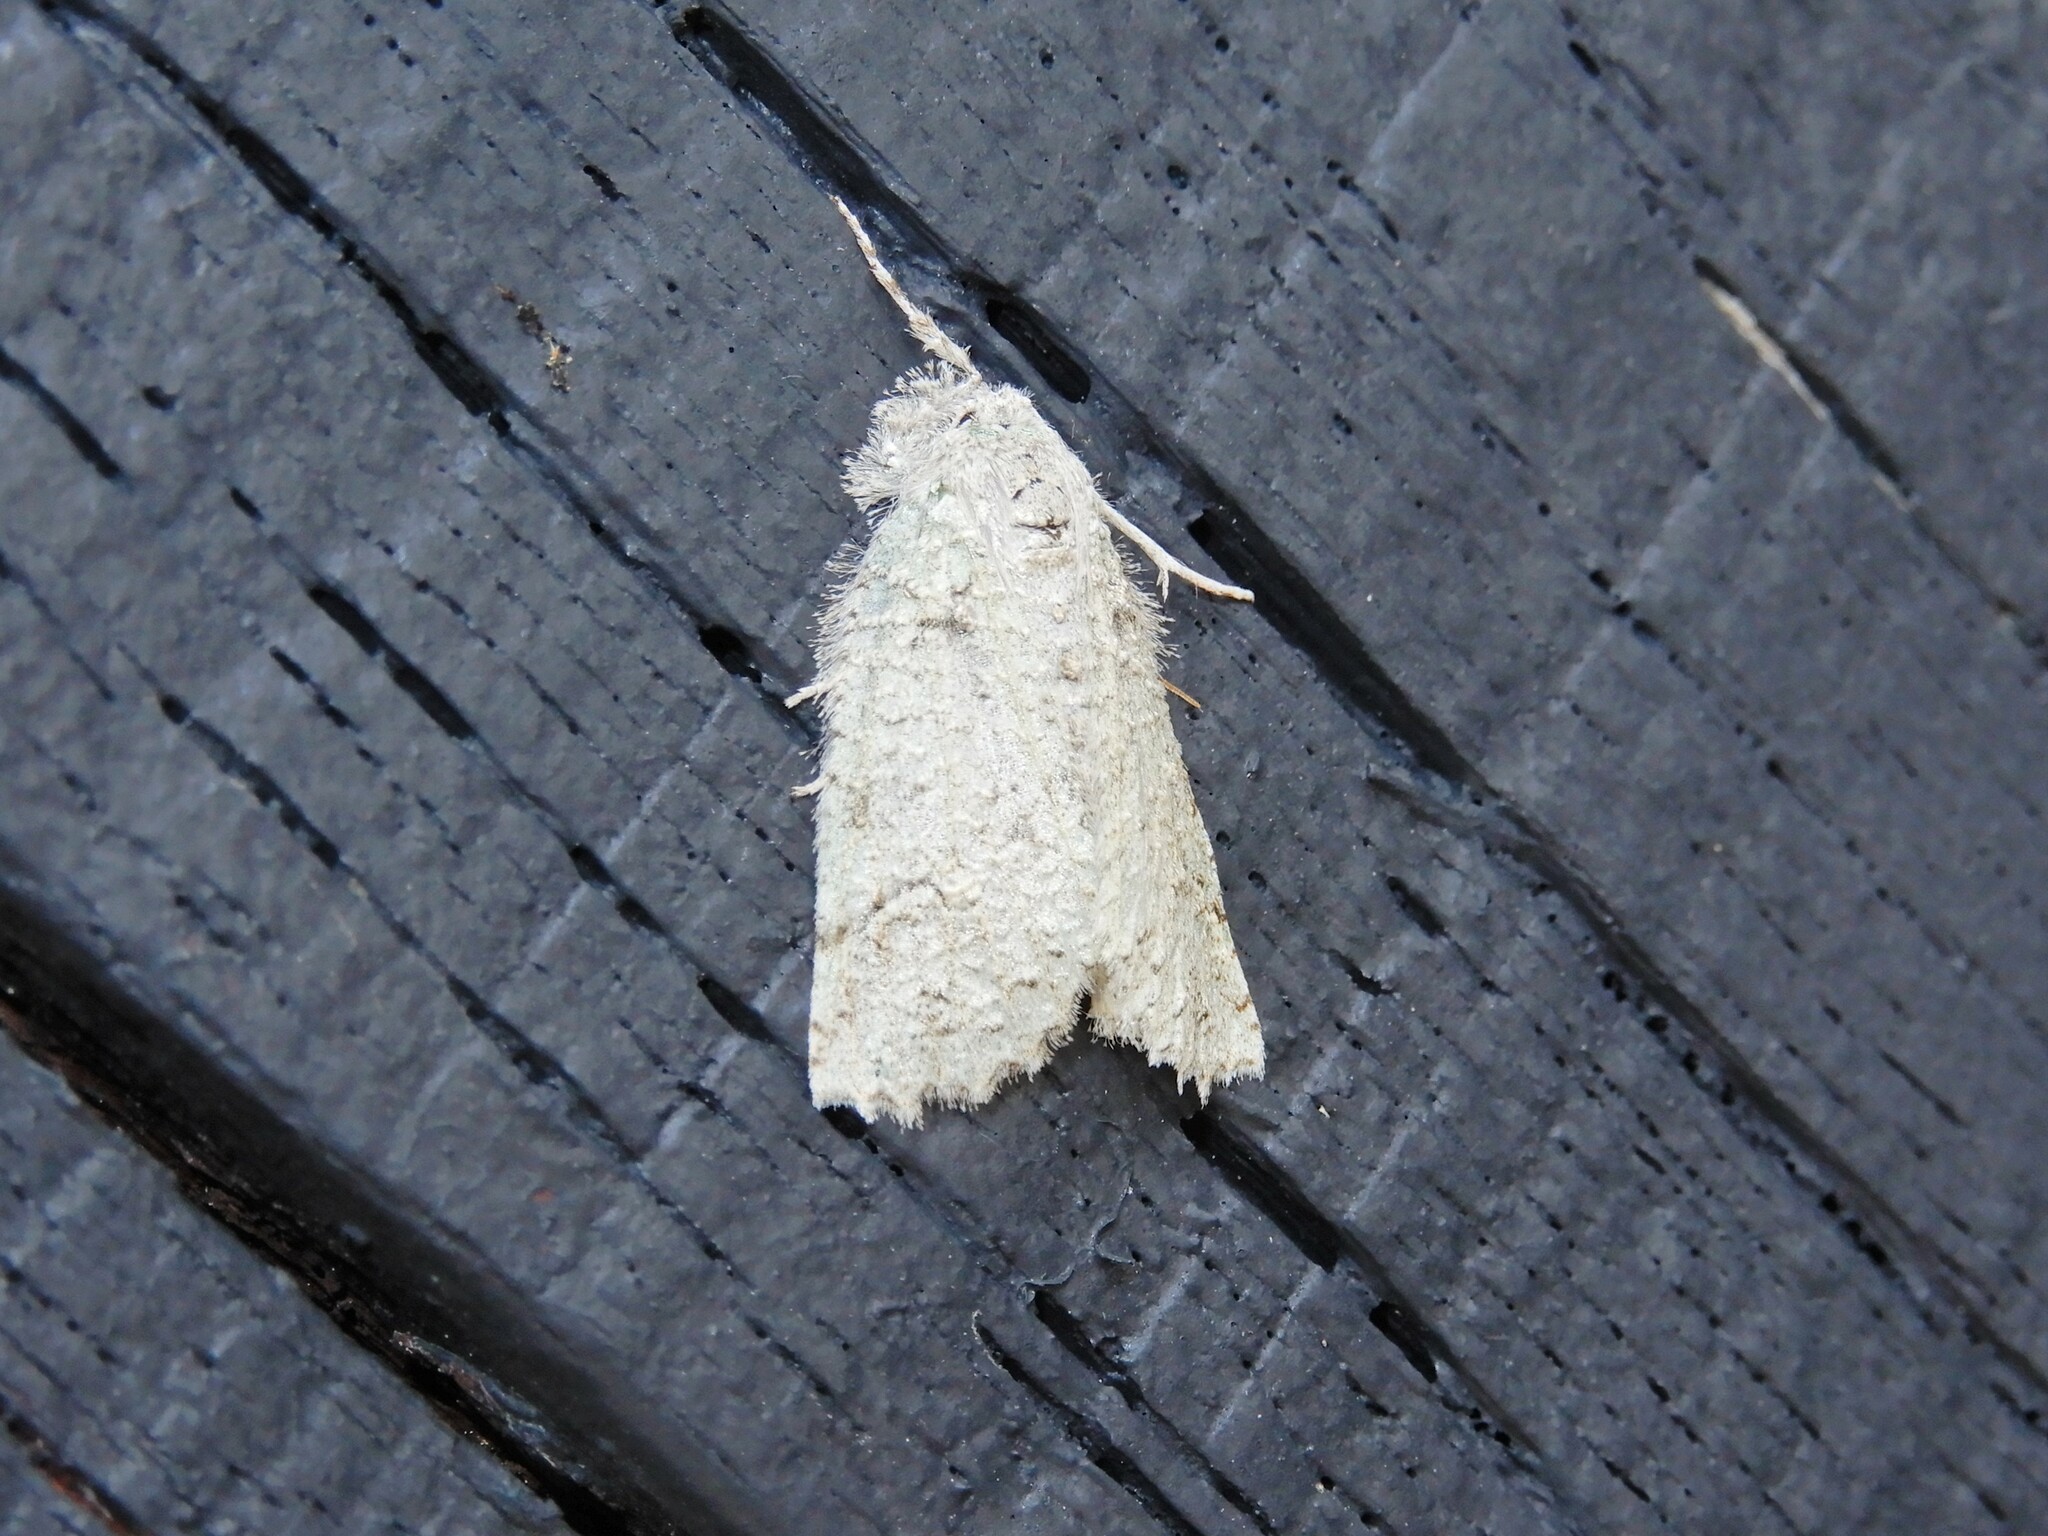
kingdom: Animalia
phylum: Arthropoda
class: Insecta
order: Lepidoptera
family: Geometridae
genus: Declana
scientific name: Declana floccosa
